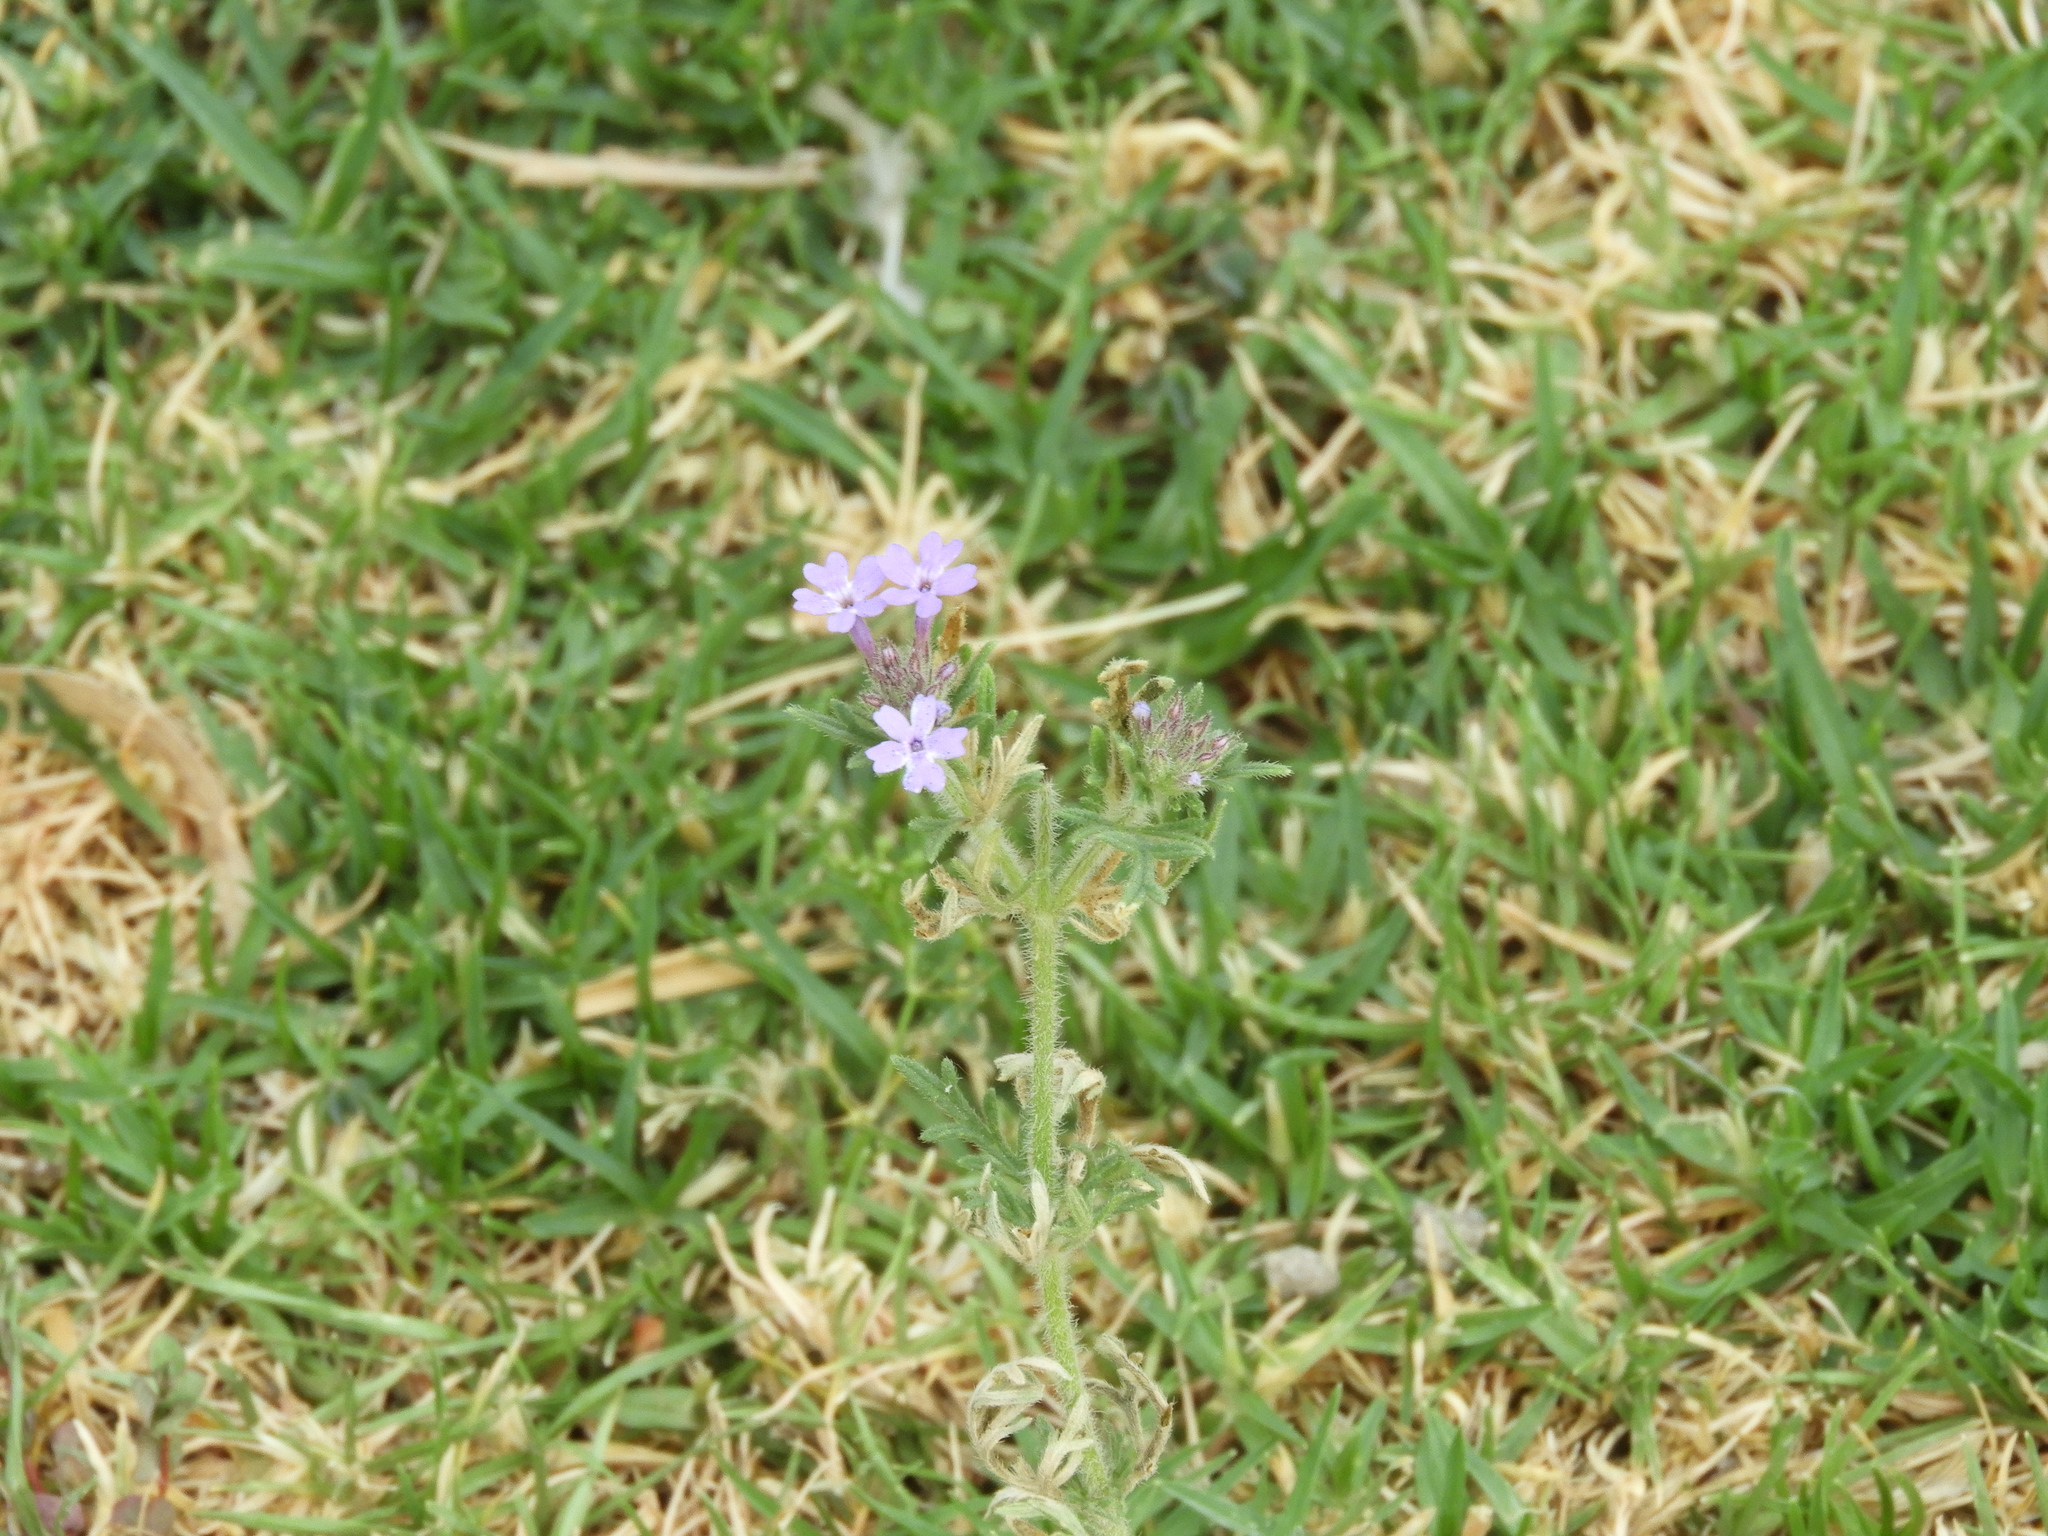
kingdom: Plantae
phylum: Tracheophyta
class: Magnoliopsida
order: Lamiales
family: Verbenaceae
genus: Verbena
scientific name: Verbena bipinnatifida
